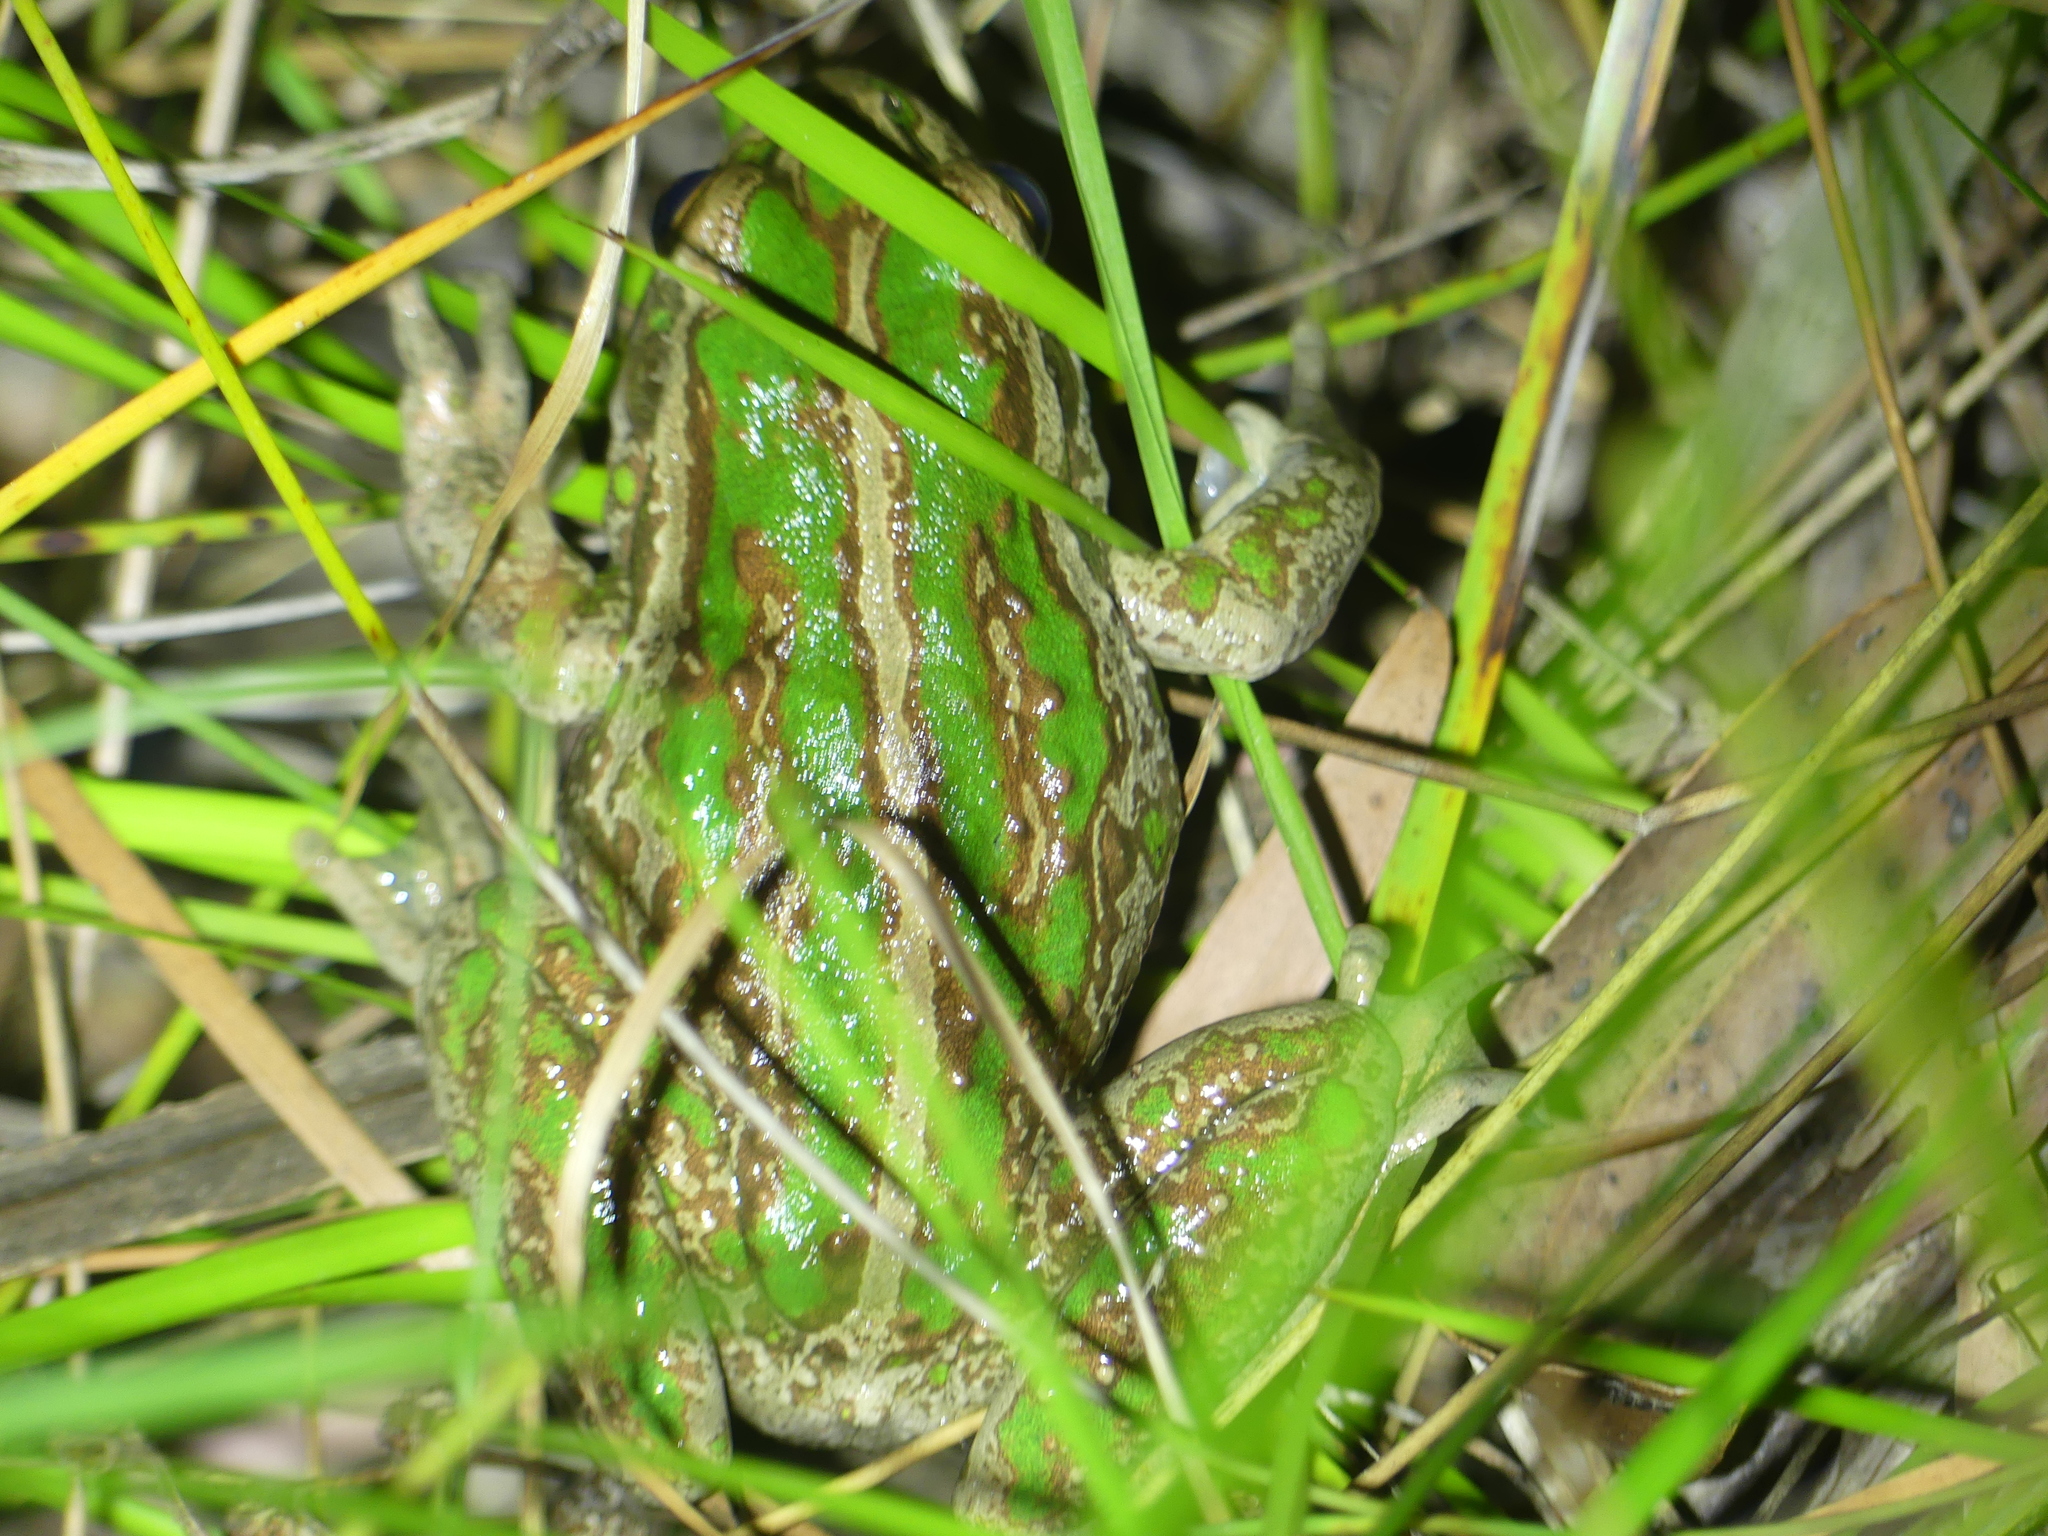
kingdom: Animalia
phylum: Chordata
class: Amphibia
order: Anura
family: Pelodryadidae
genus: Ranoidea
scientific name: Ranoidea moorei
